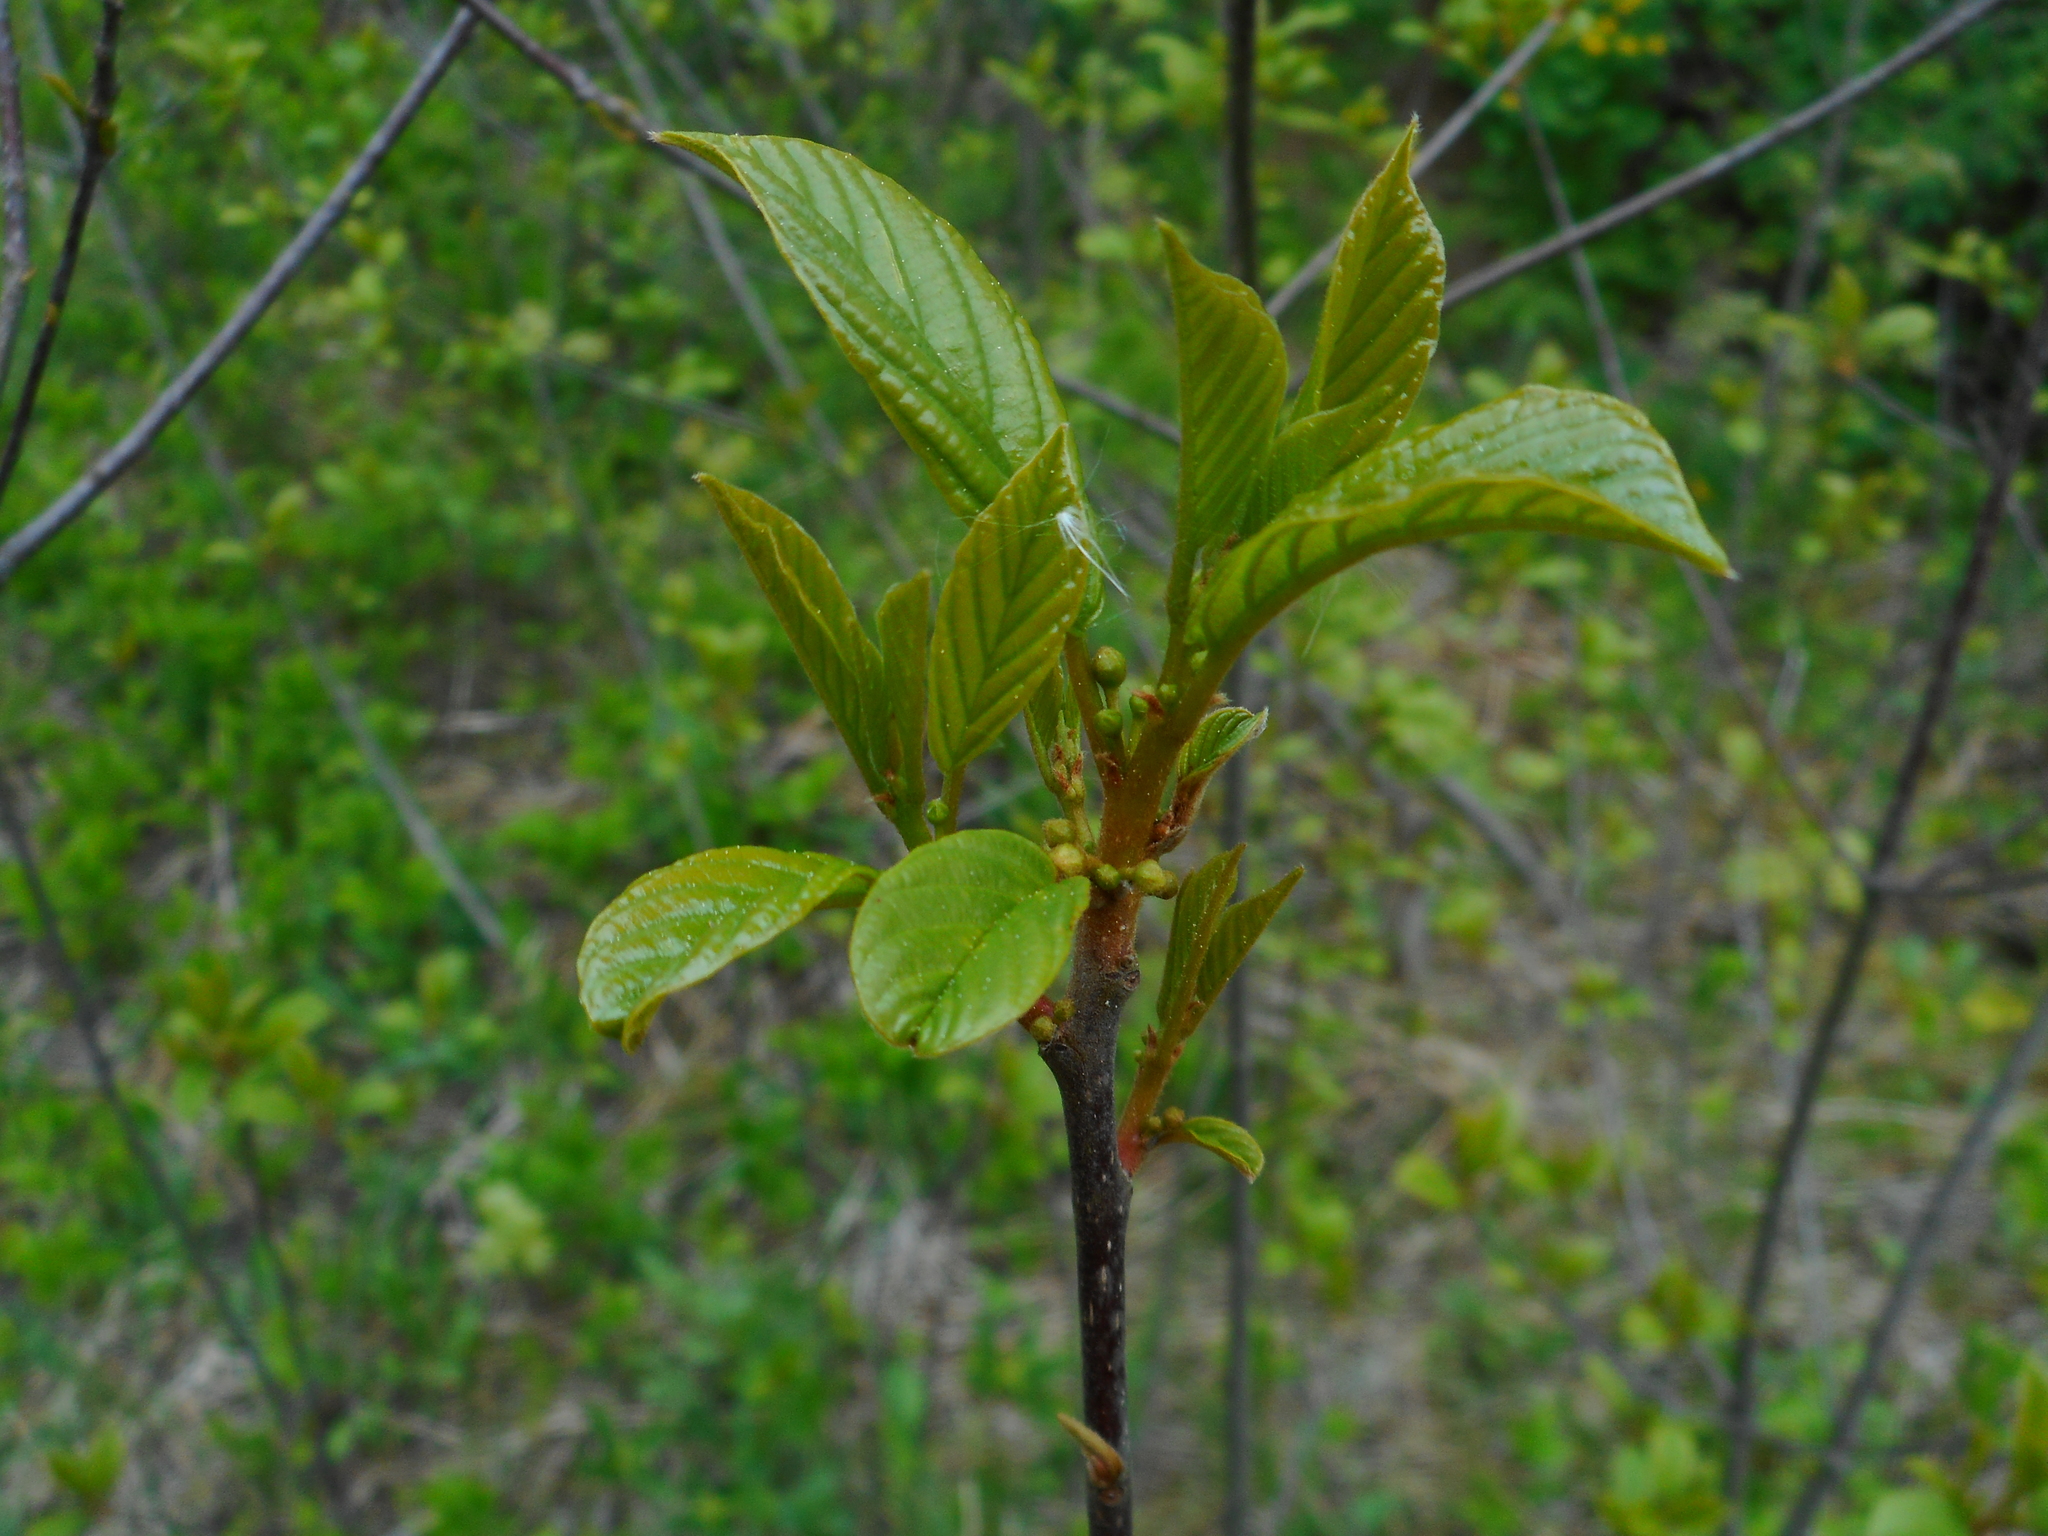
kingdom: Plantae
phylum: Tracheophyta
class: Magnoliopsida
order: Rosales
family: Rhamnaceae
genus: Frangula
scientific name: Frangula alnus
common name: Alder buckthorn
